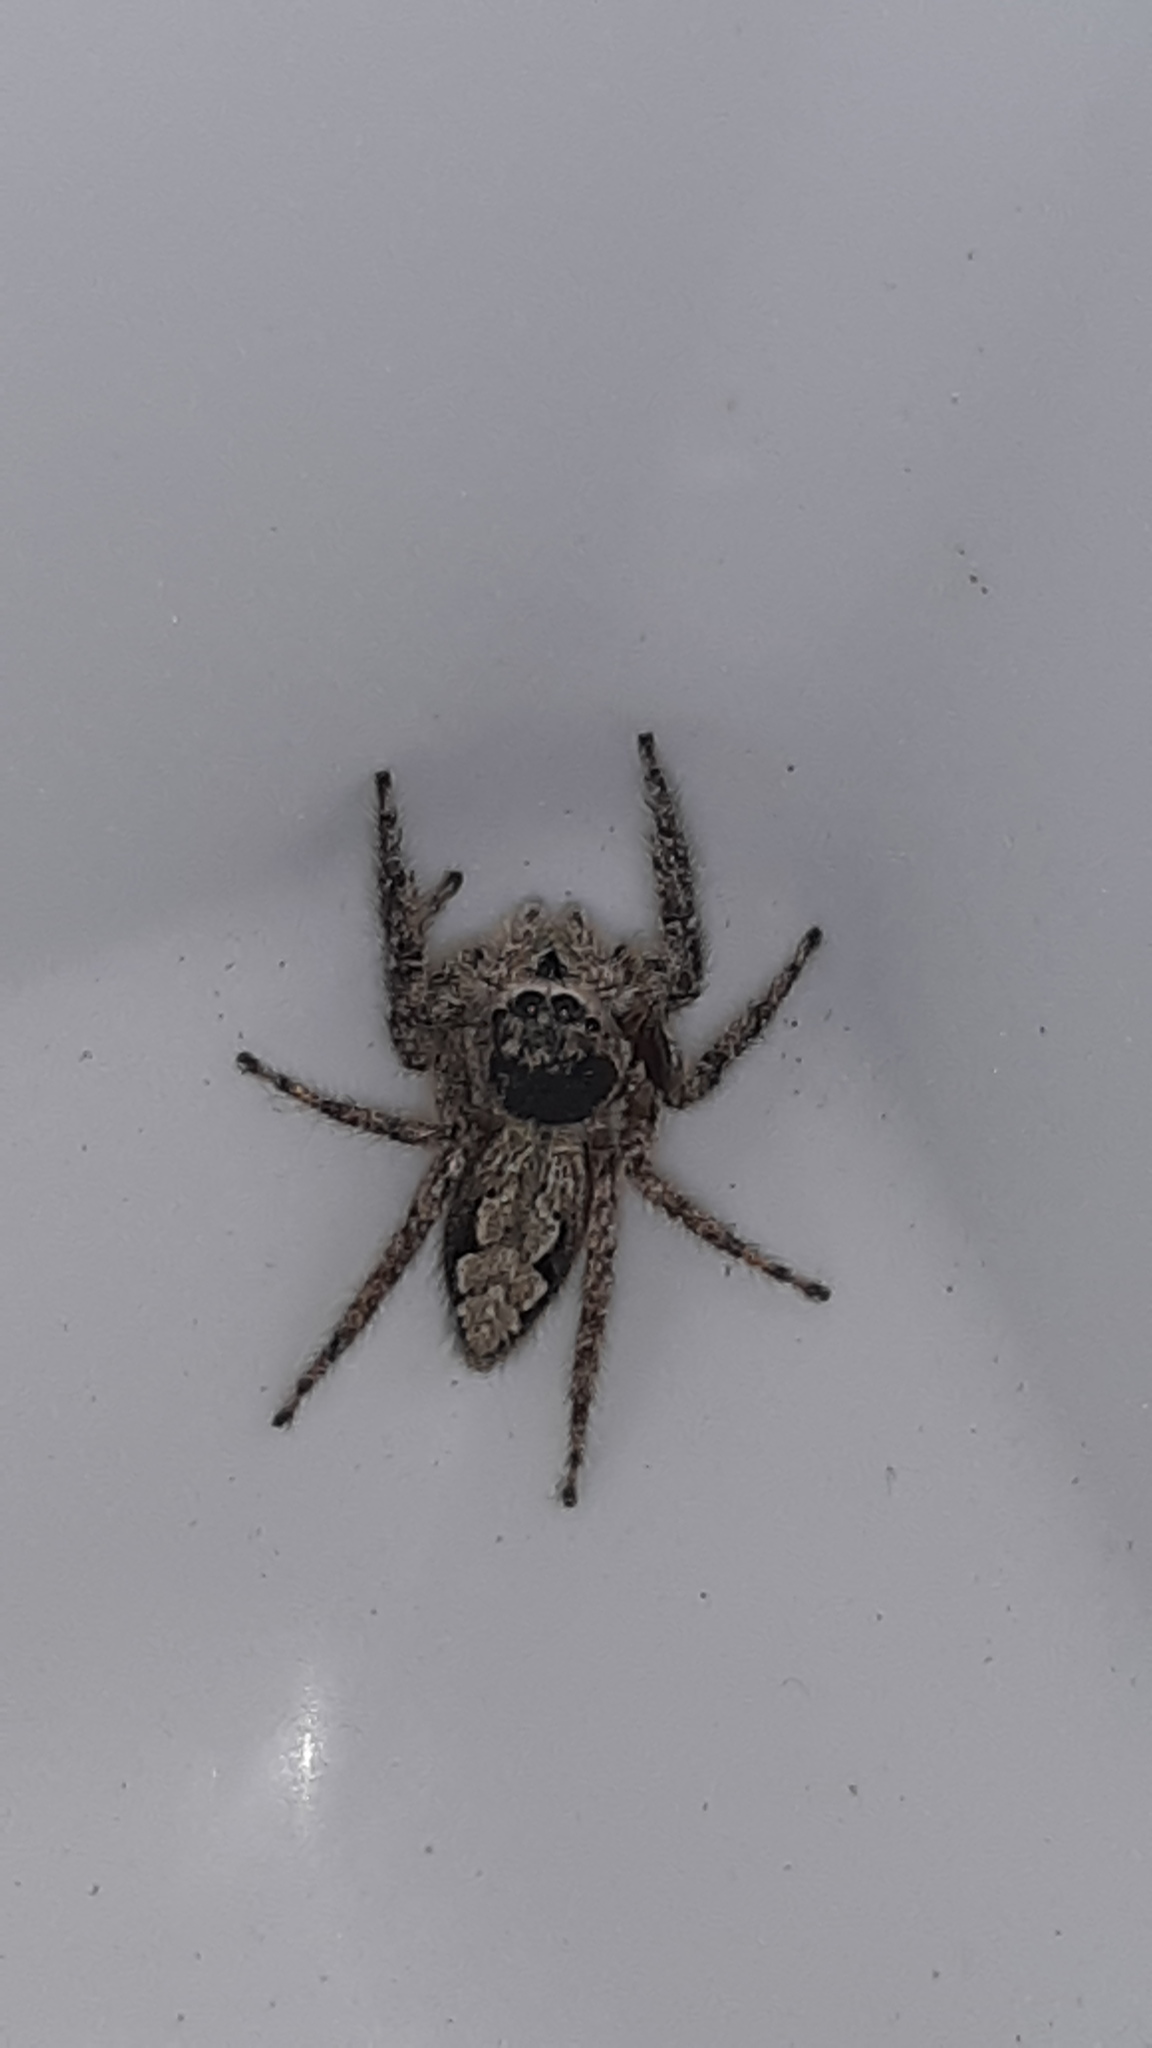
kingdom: Animalia
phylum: Arthropoda
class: Arachnida
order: Araneae
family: Salticidae
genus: Platycryptus
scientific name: Platycryptus undatus
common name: Tan jumping spider
